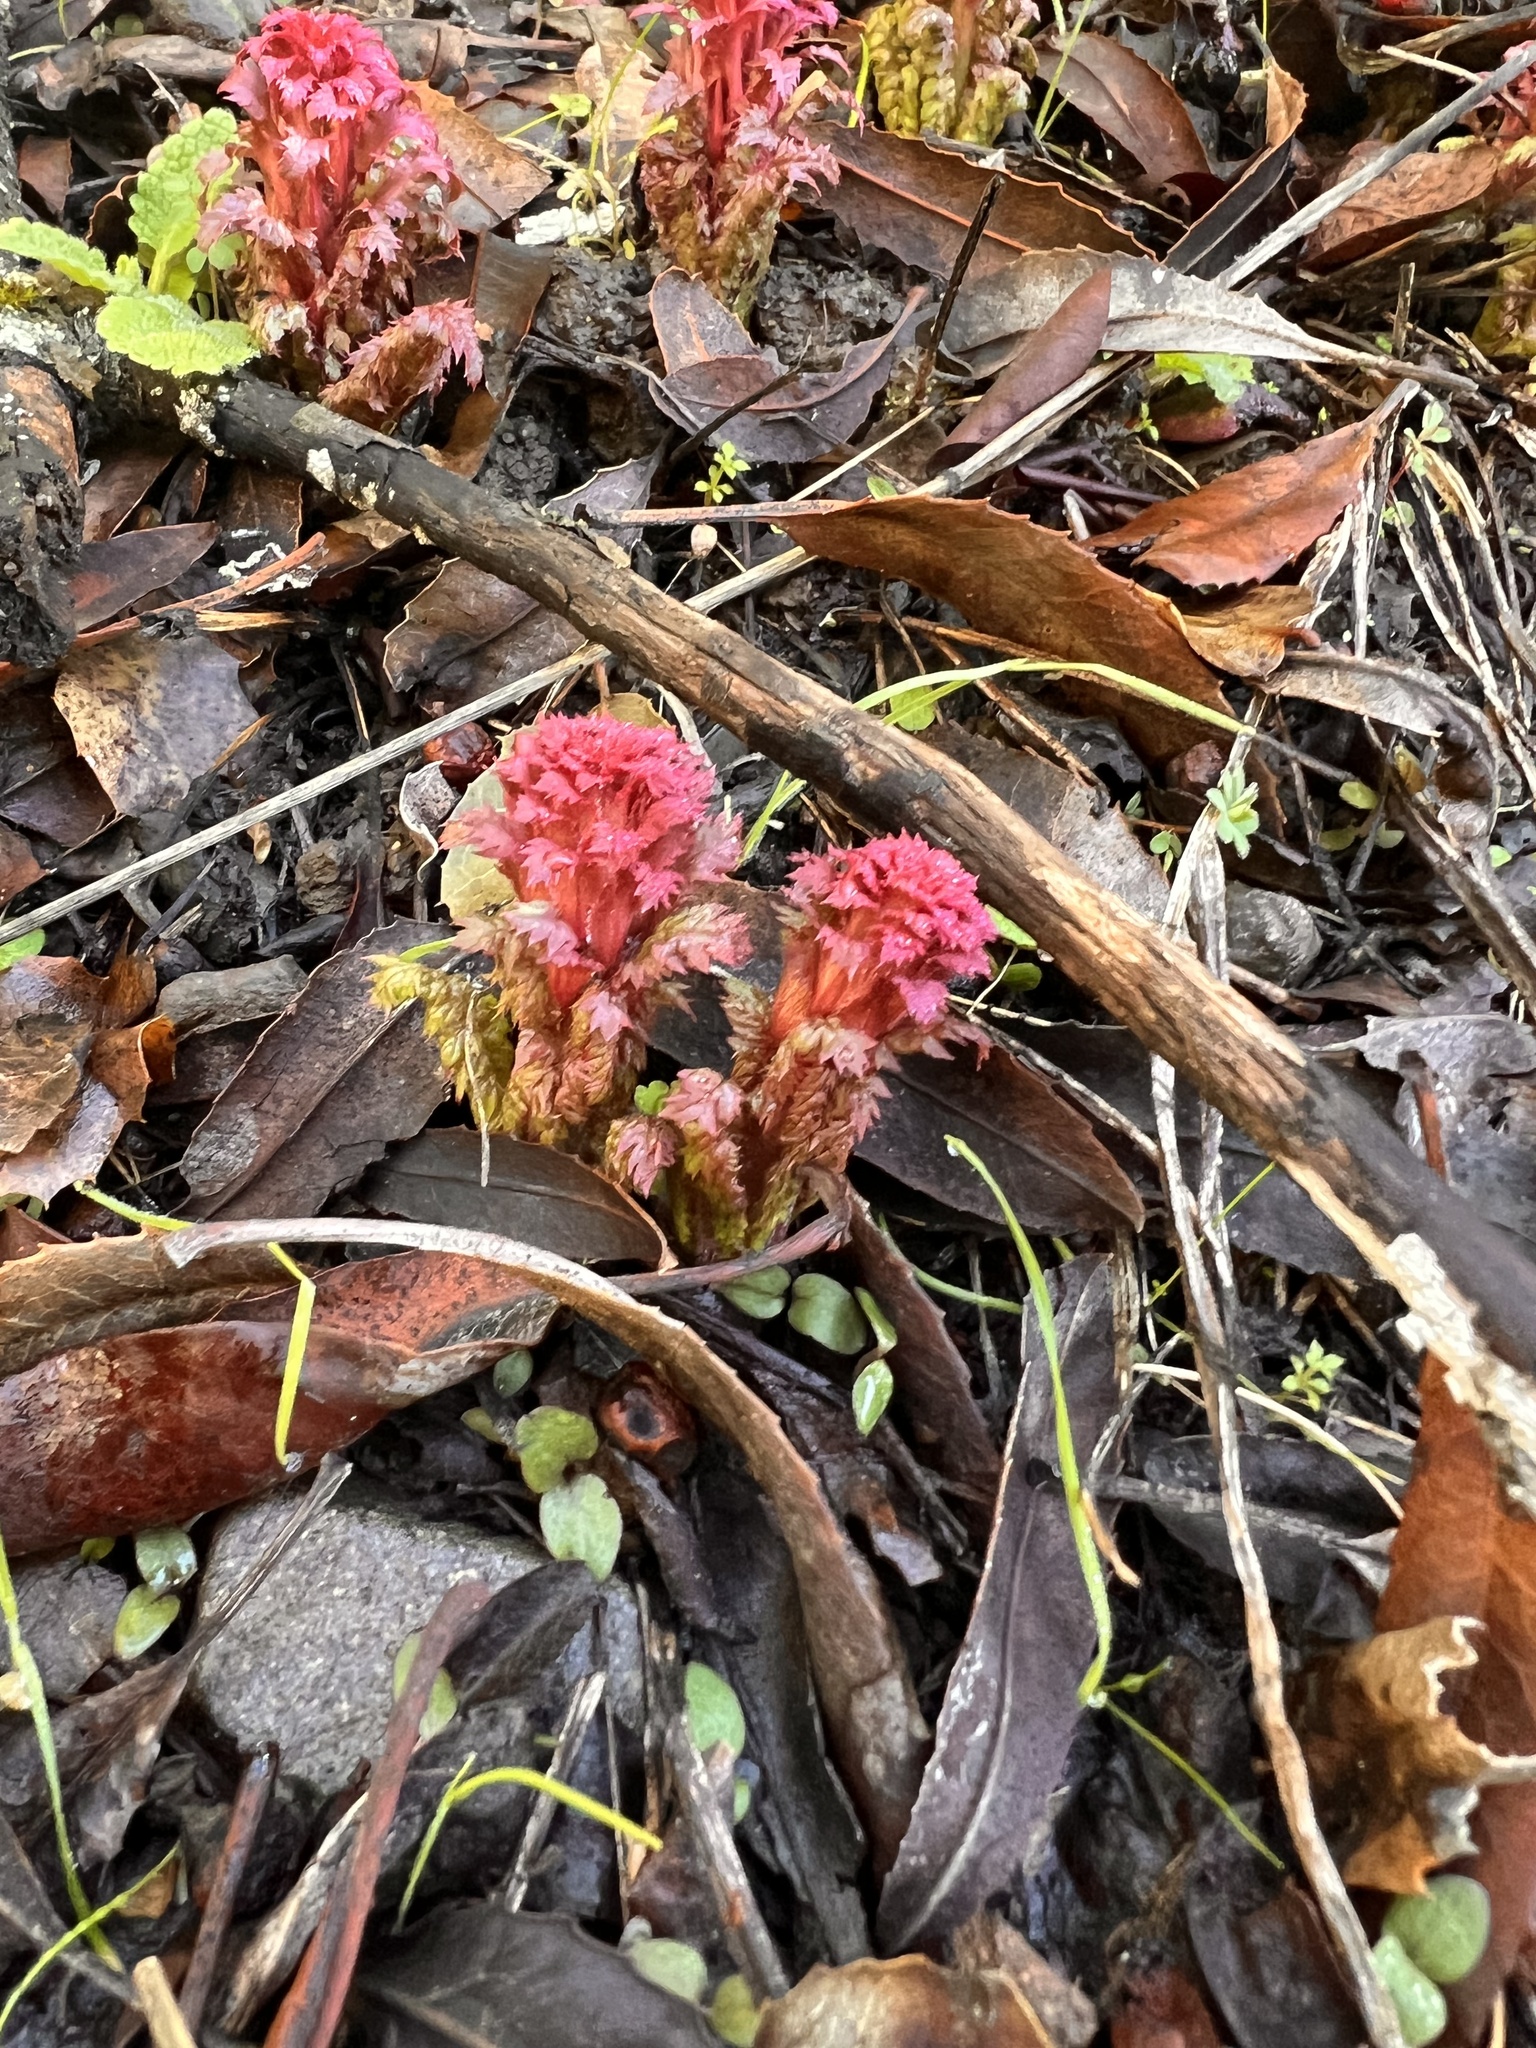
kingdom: Plantae
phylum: Tracheophyta
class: Magnoliopsida
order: Lamiales
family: Orobanchaceae
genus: Pedicularis
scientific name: Pedicularis densiflora
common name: Indian warrior
